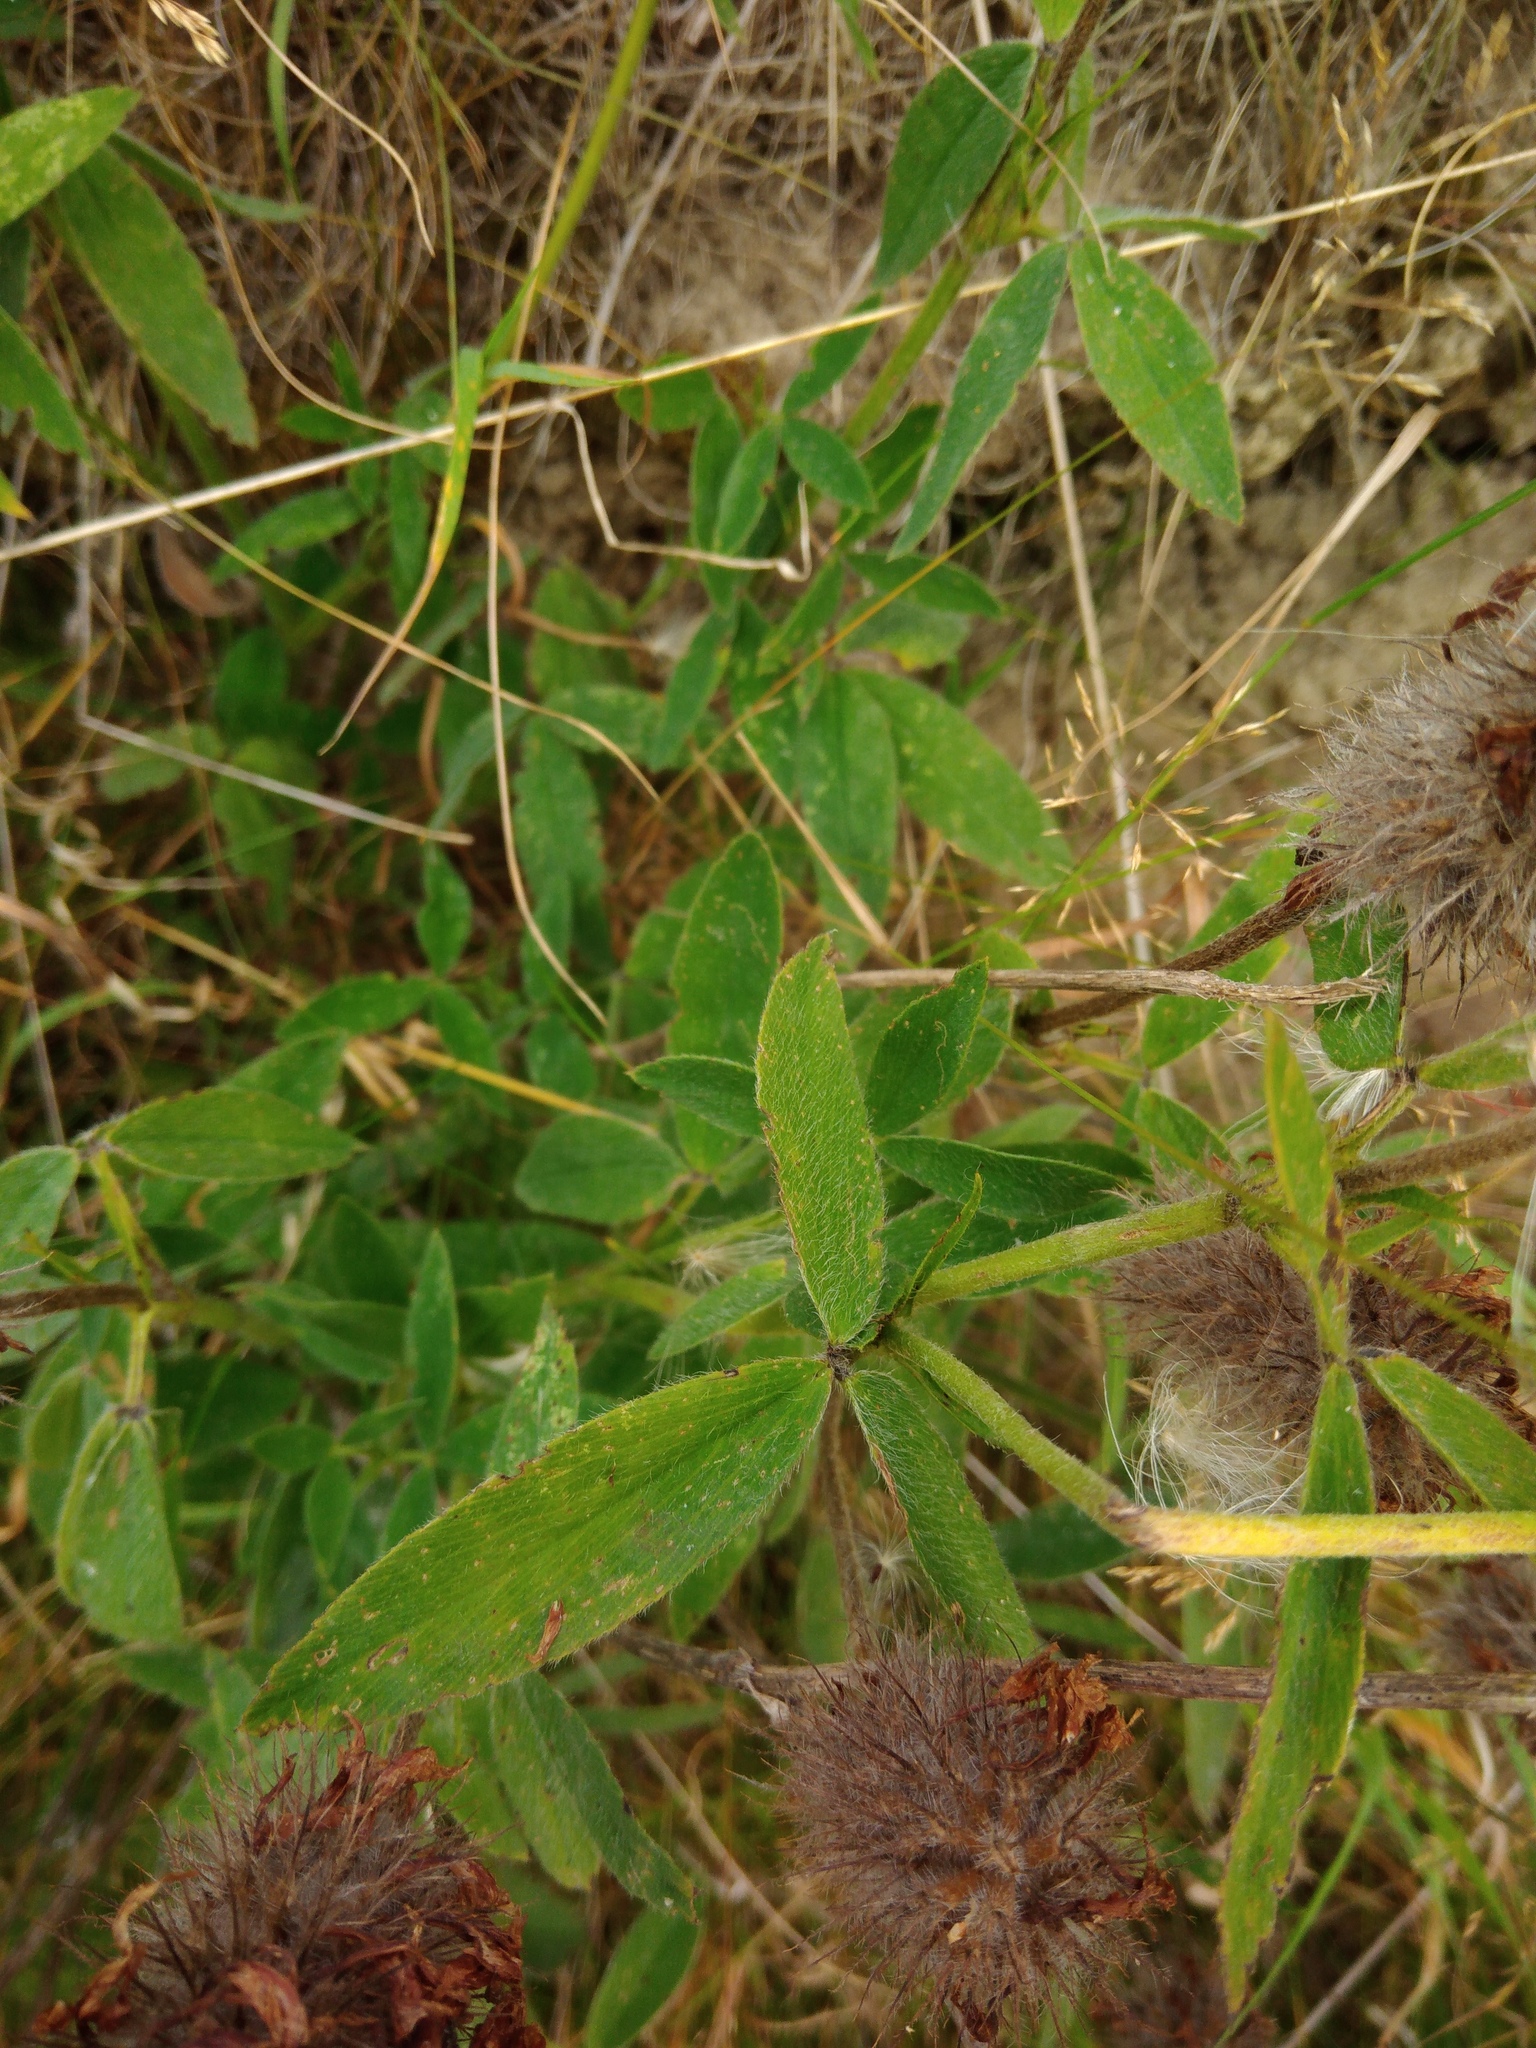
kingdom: Plantae
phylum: Tracheophyta
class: Magnoliopsida
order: Fabales
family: Fabaceae
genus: Trifolium
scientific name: Trifolium rubens
